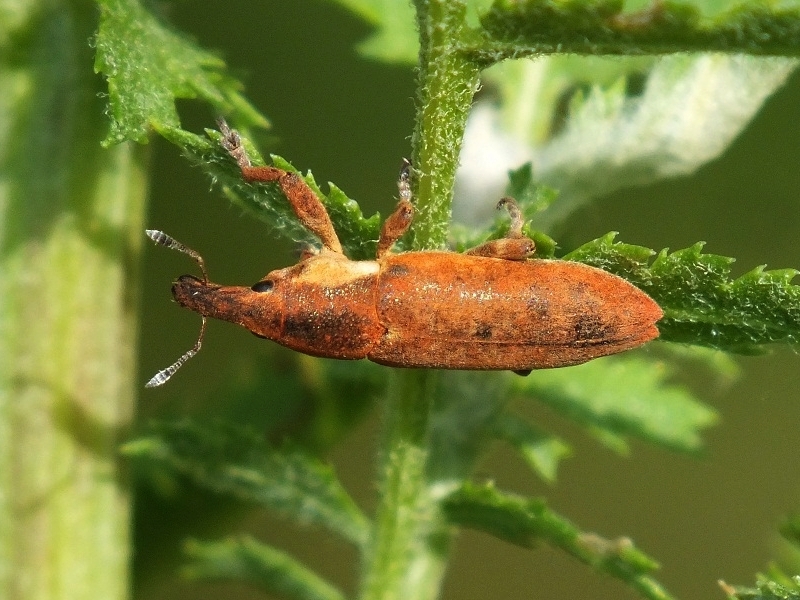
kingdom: Animalia
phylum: Arthropoda
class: Insecta
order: Coleoptera
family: Curculionidae
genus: Lixus
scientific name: Lixus cinerascens
